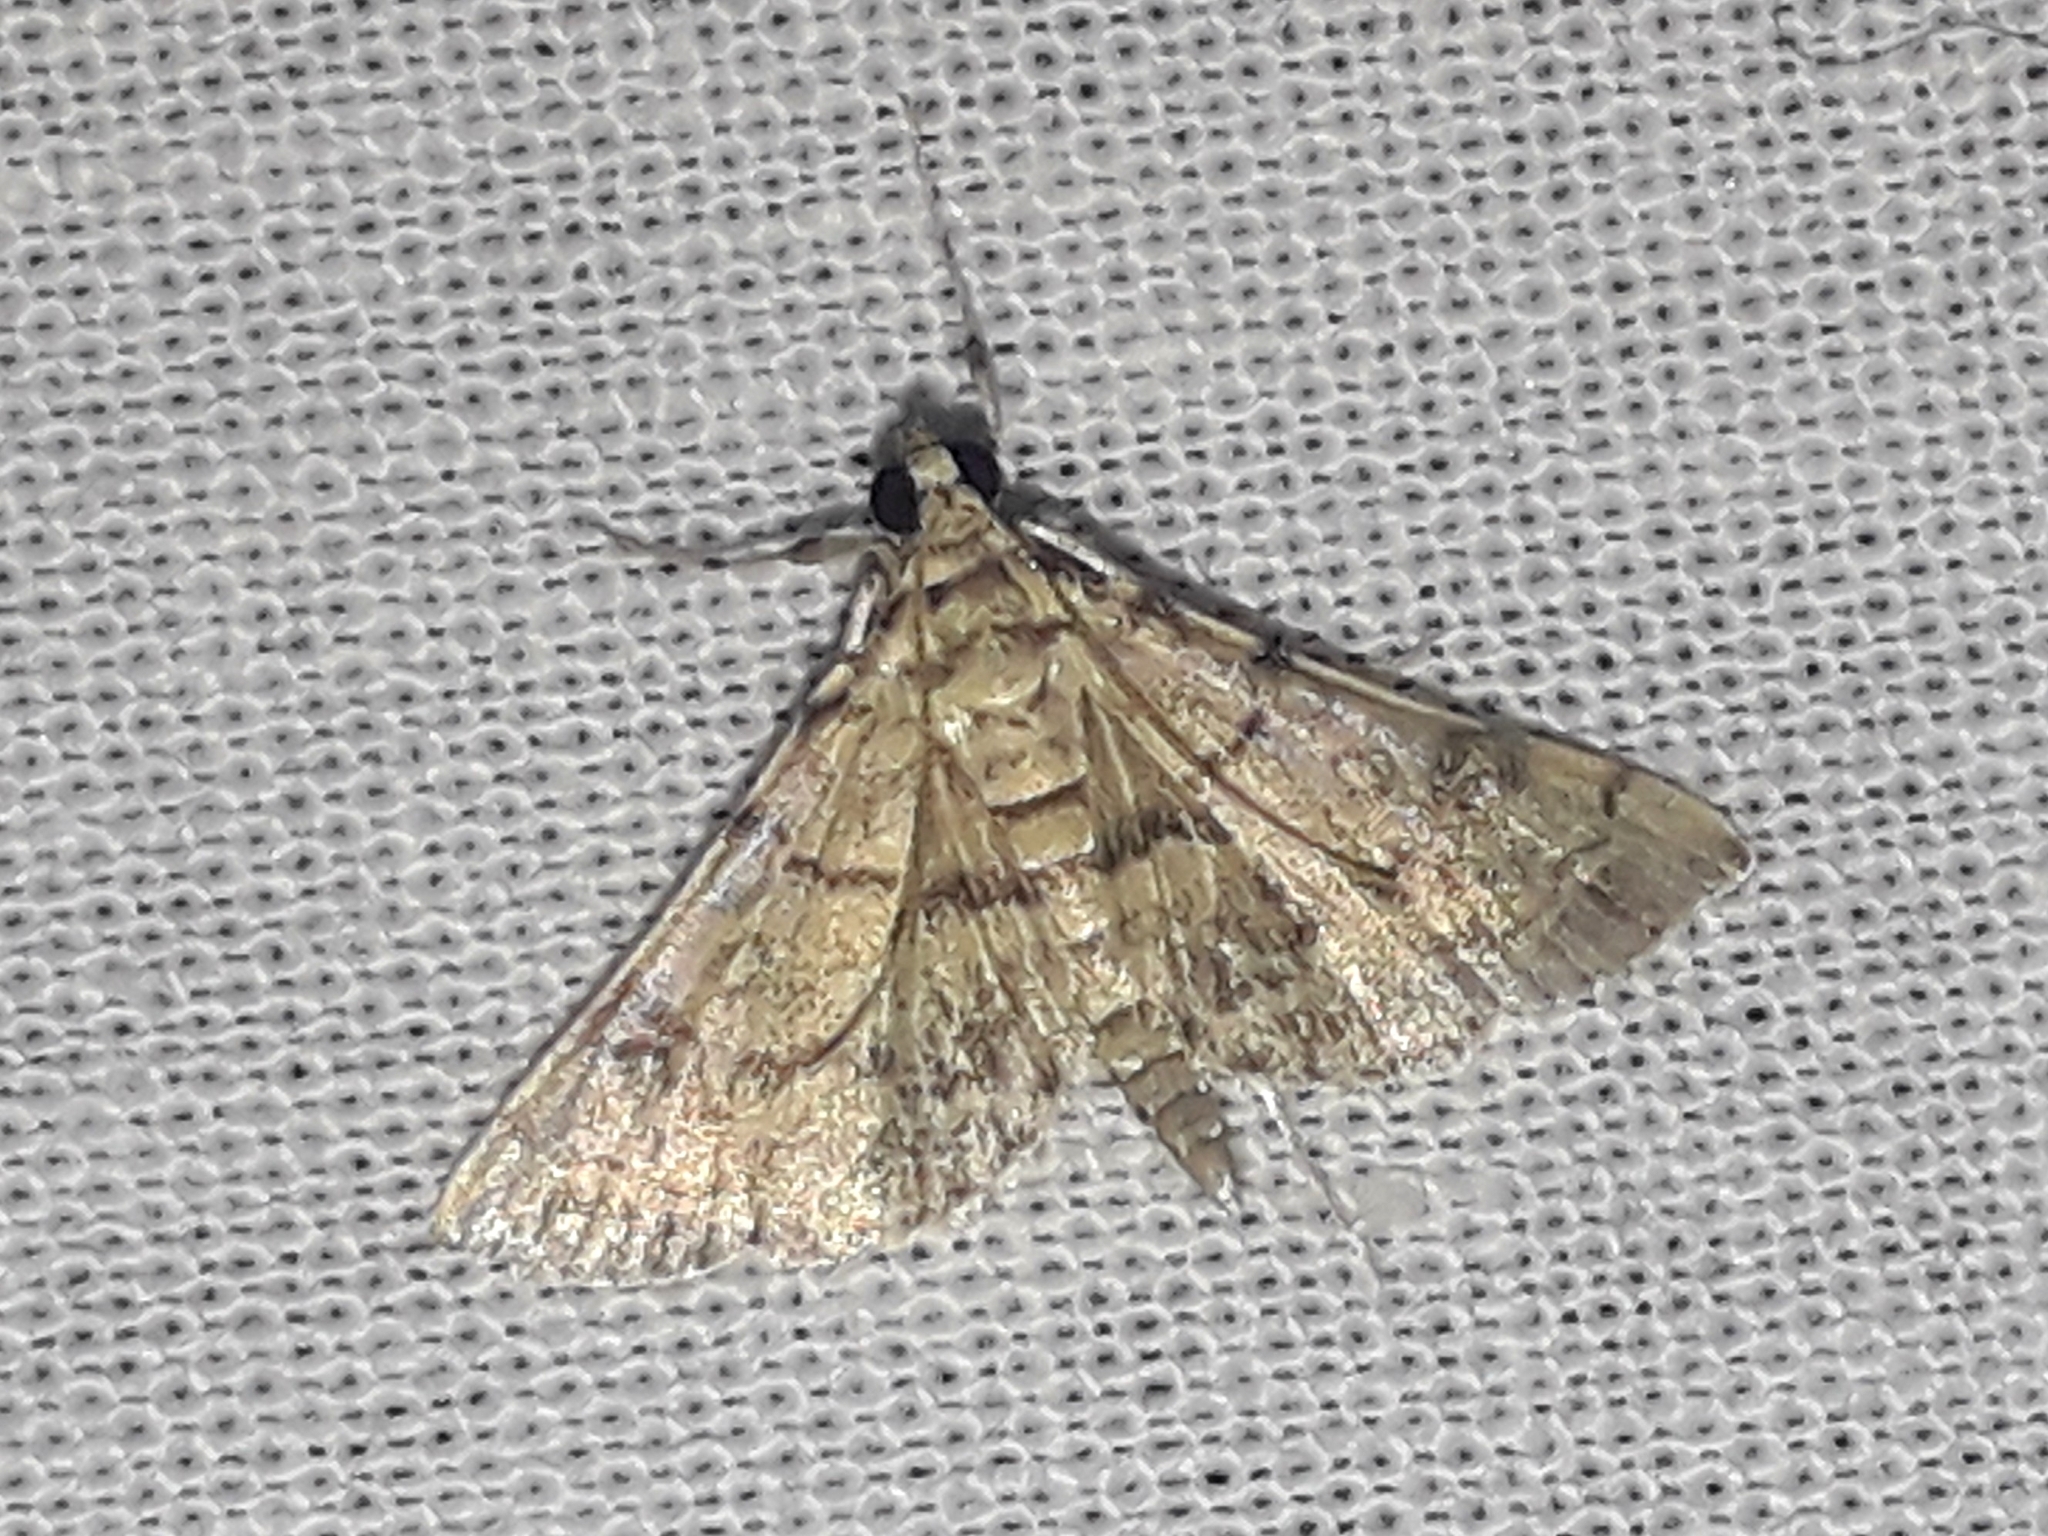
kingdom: Animalia
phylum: Arthropoda
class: Insecta
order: Lepidoptera
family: Crambidae
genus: Apogeshna
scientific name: Apogeshna stenialis
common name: Checkered apogeshna moth
